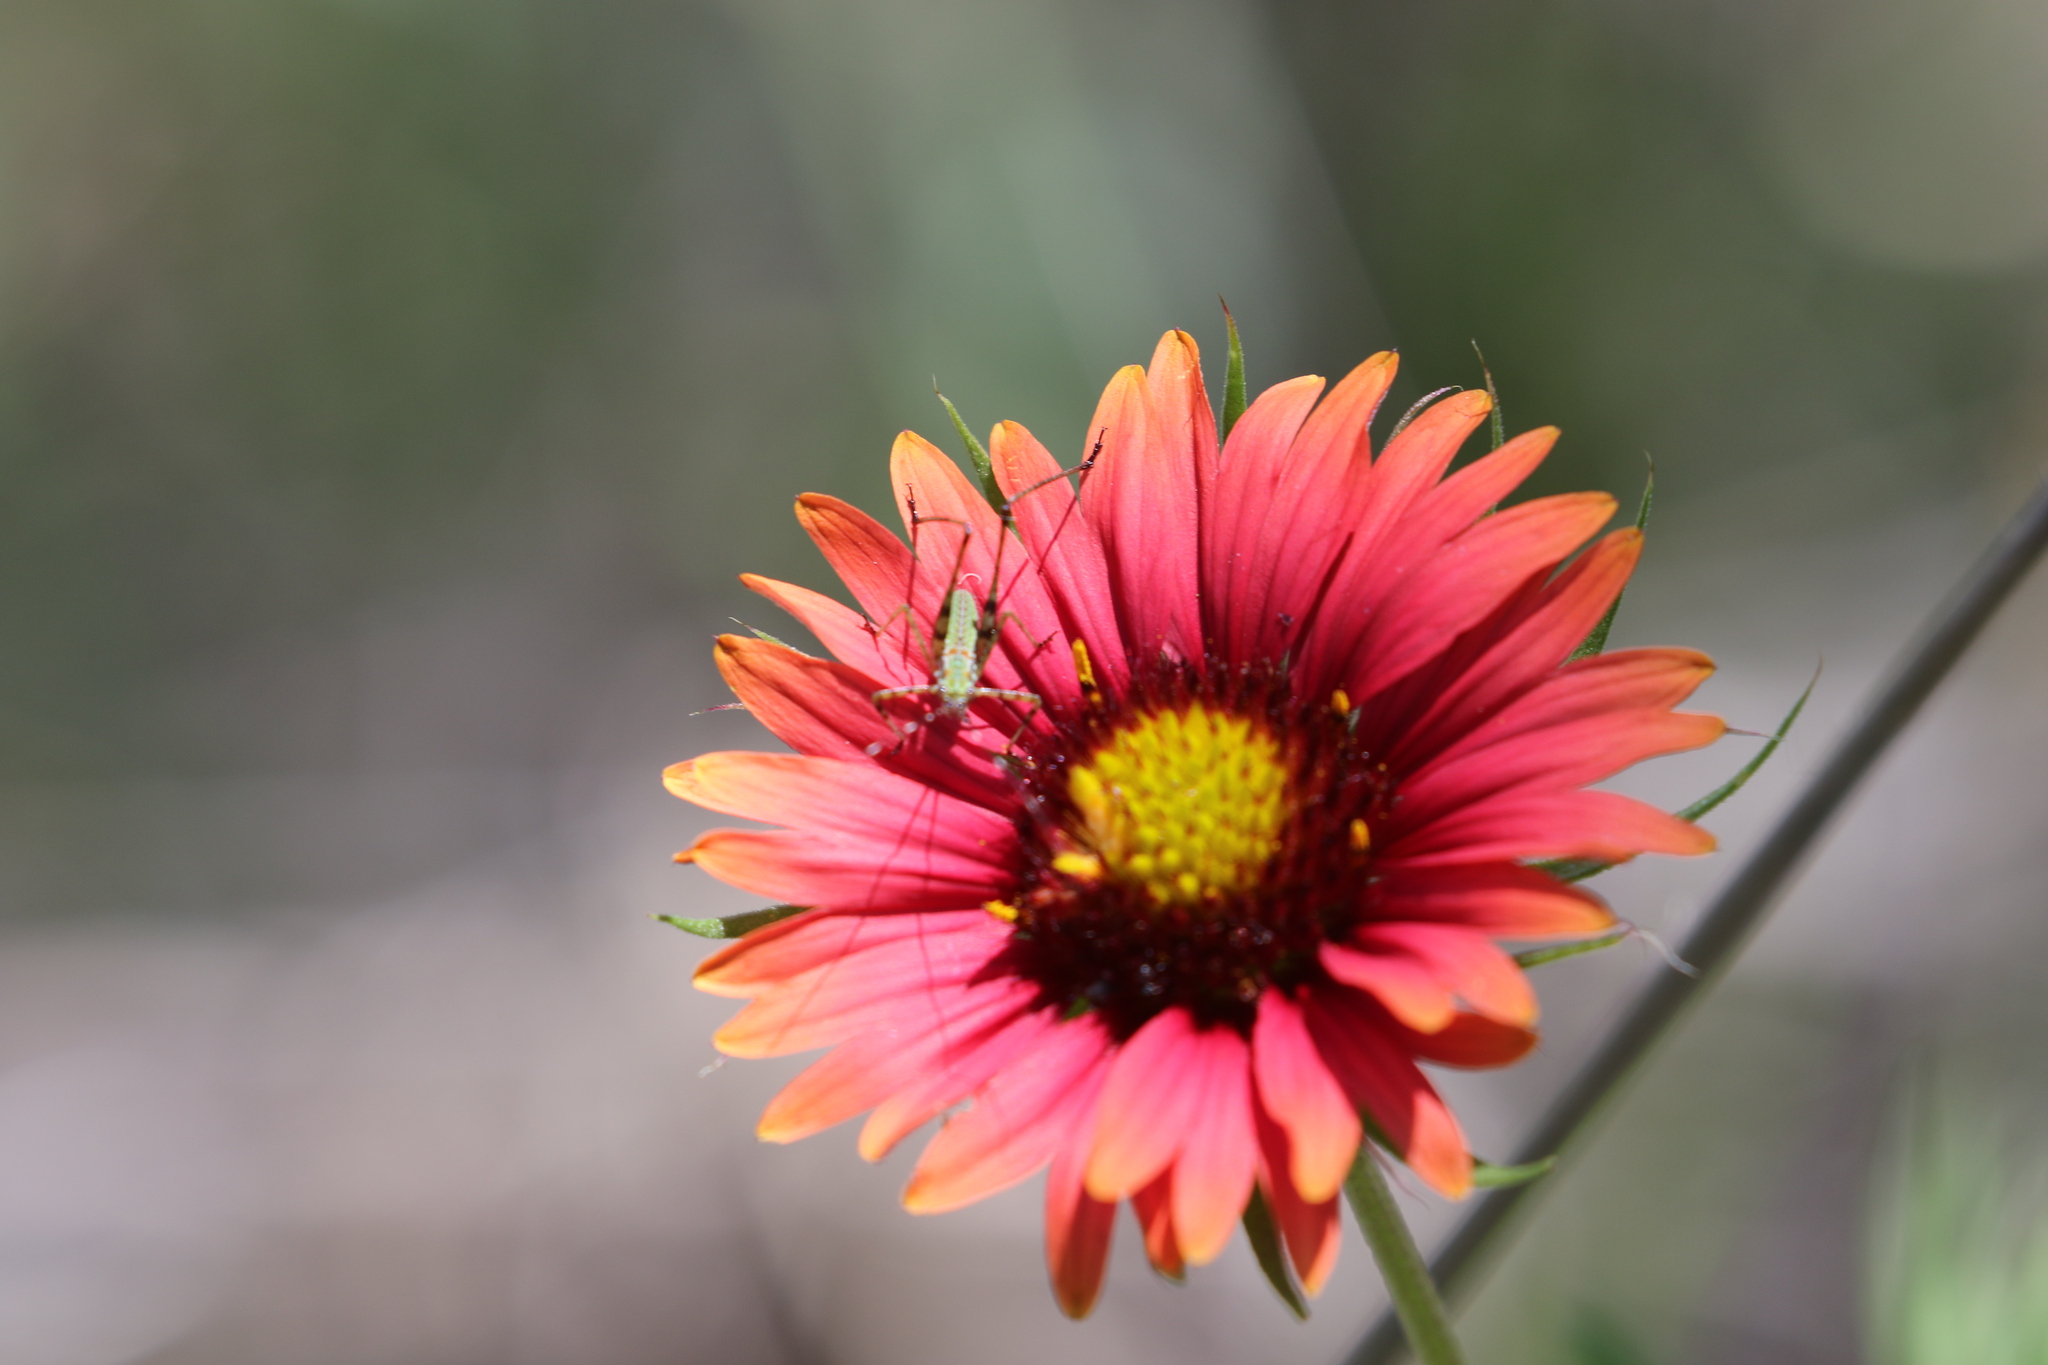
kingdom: Plantae
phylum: Tracheophyta
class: Magnoliopsida
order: Asterales
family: Asteraceae
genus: Gaillardia
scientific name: Gaillardia pulchella
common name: Firewheel
